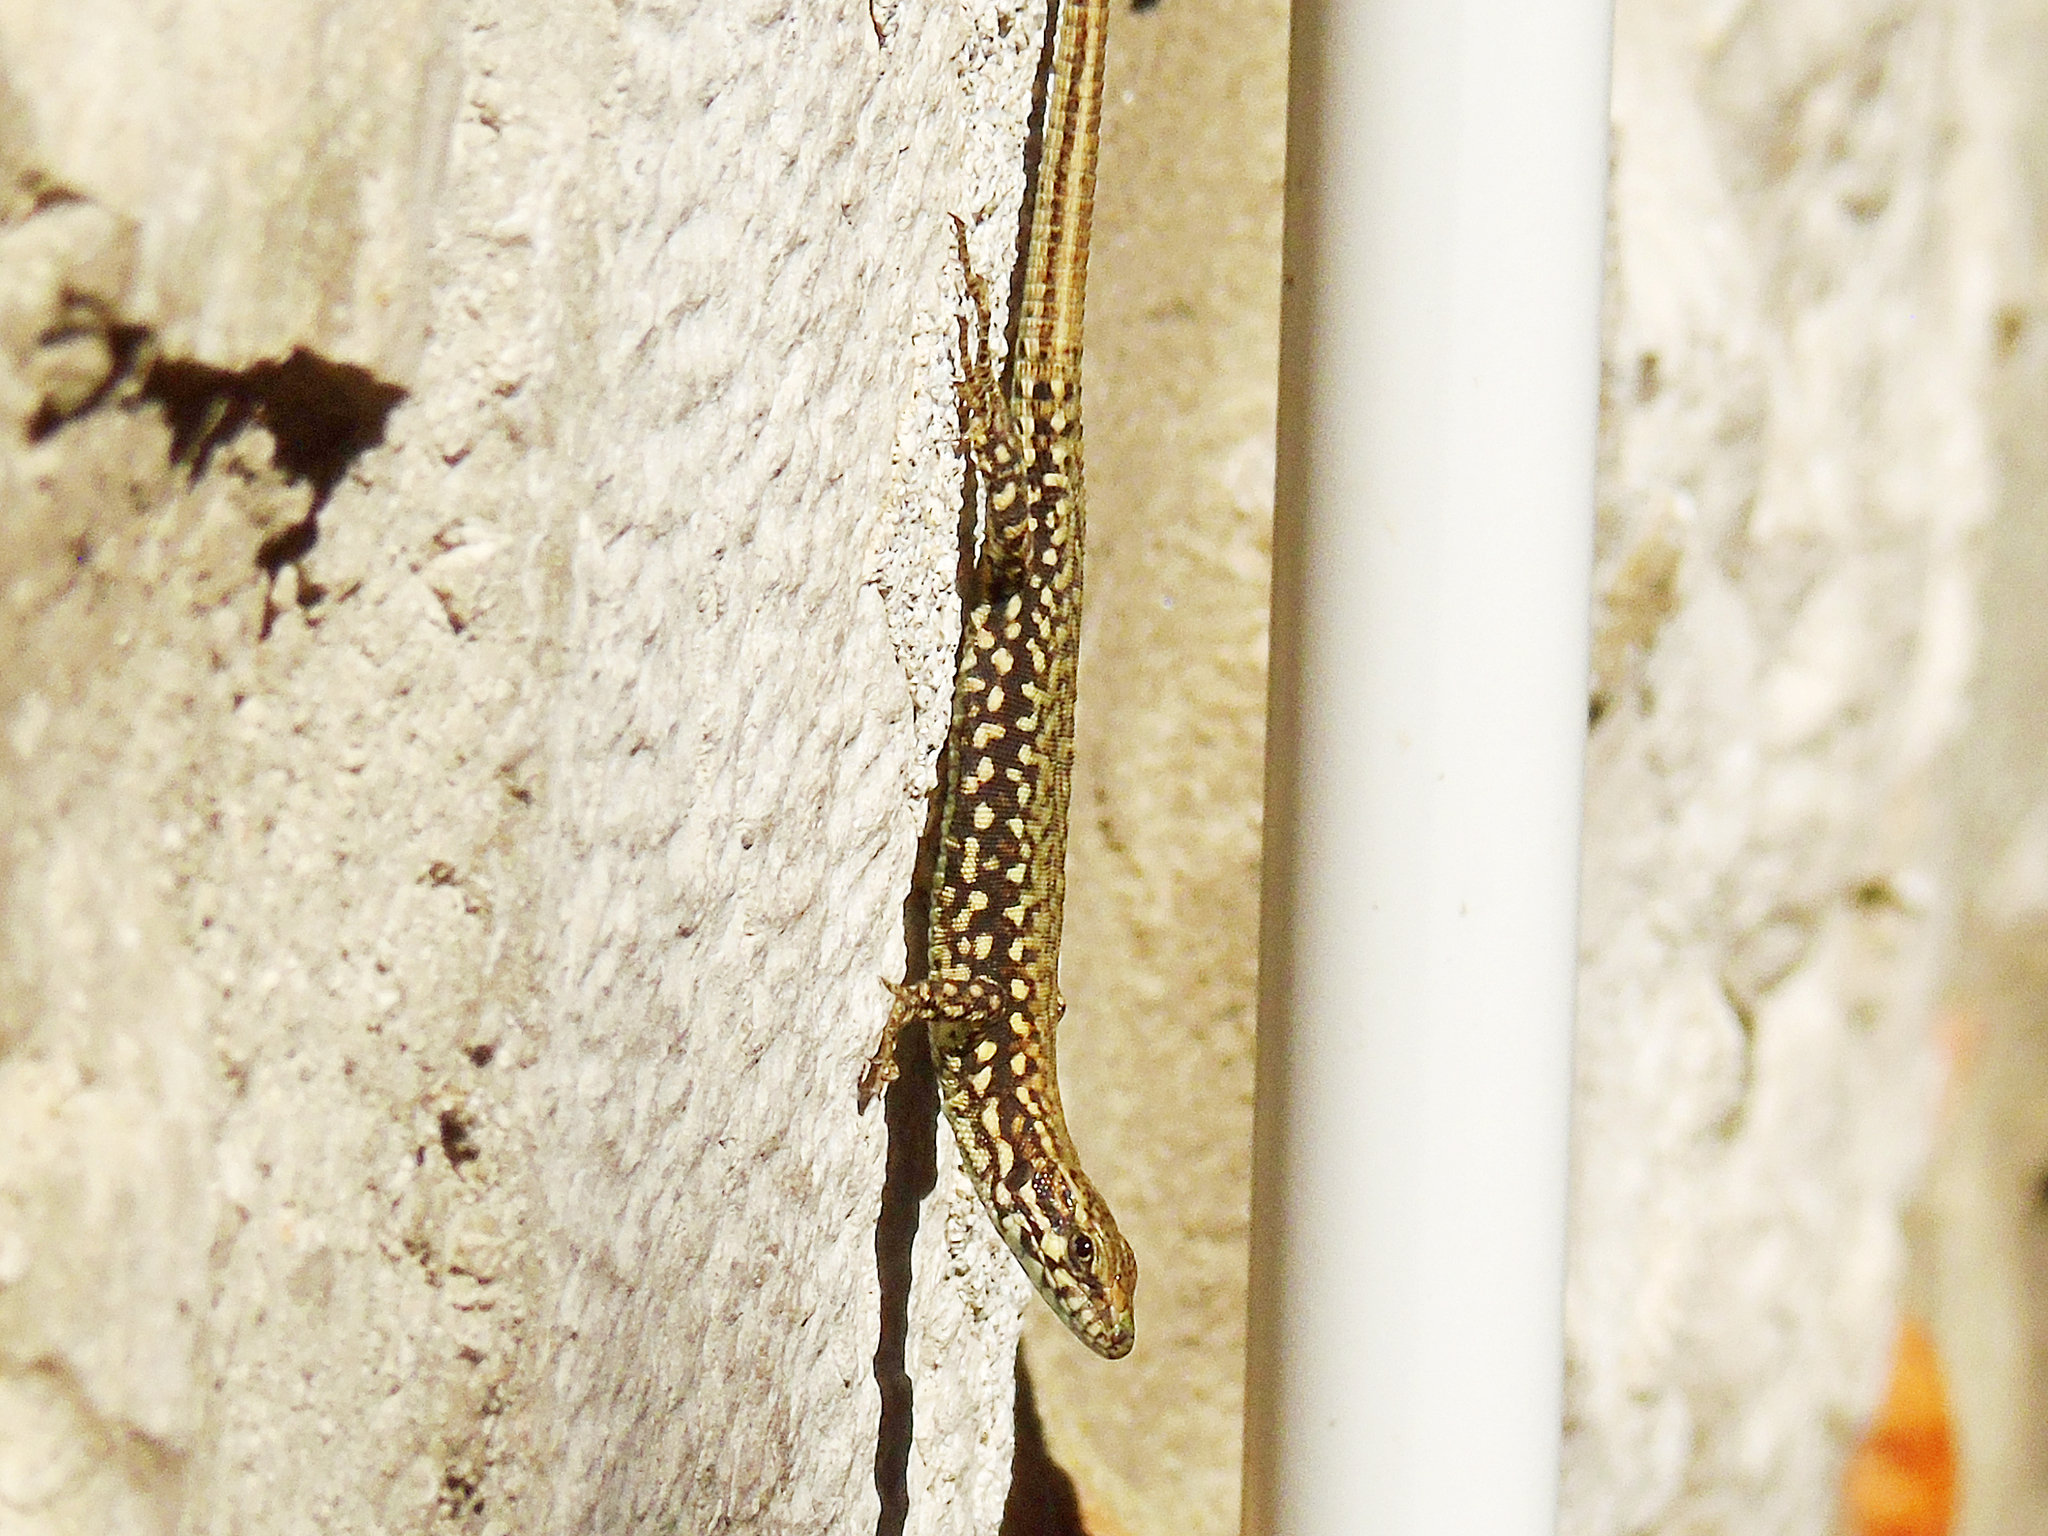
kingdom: Animalia
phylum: Chordata
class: Squamata
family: Lacertidae
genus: Podarcis
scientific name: Podarcis muralis
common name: Common wall lizard
